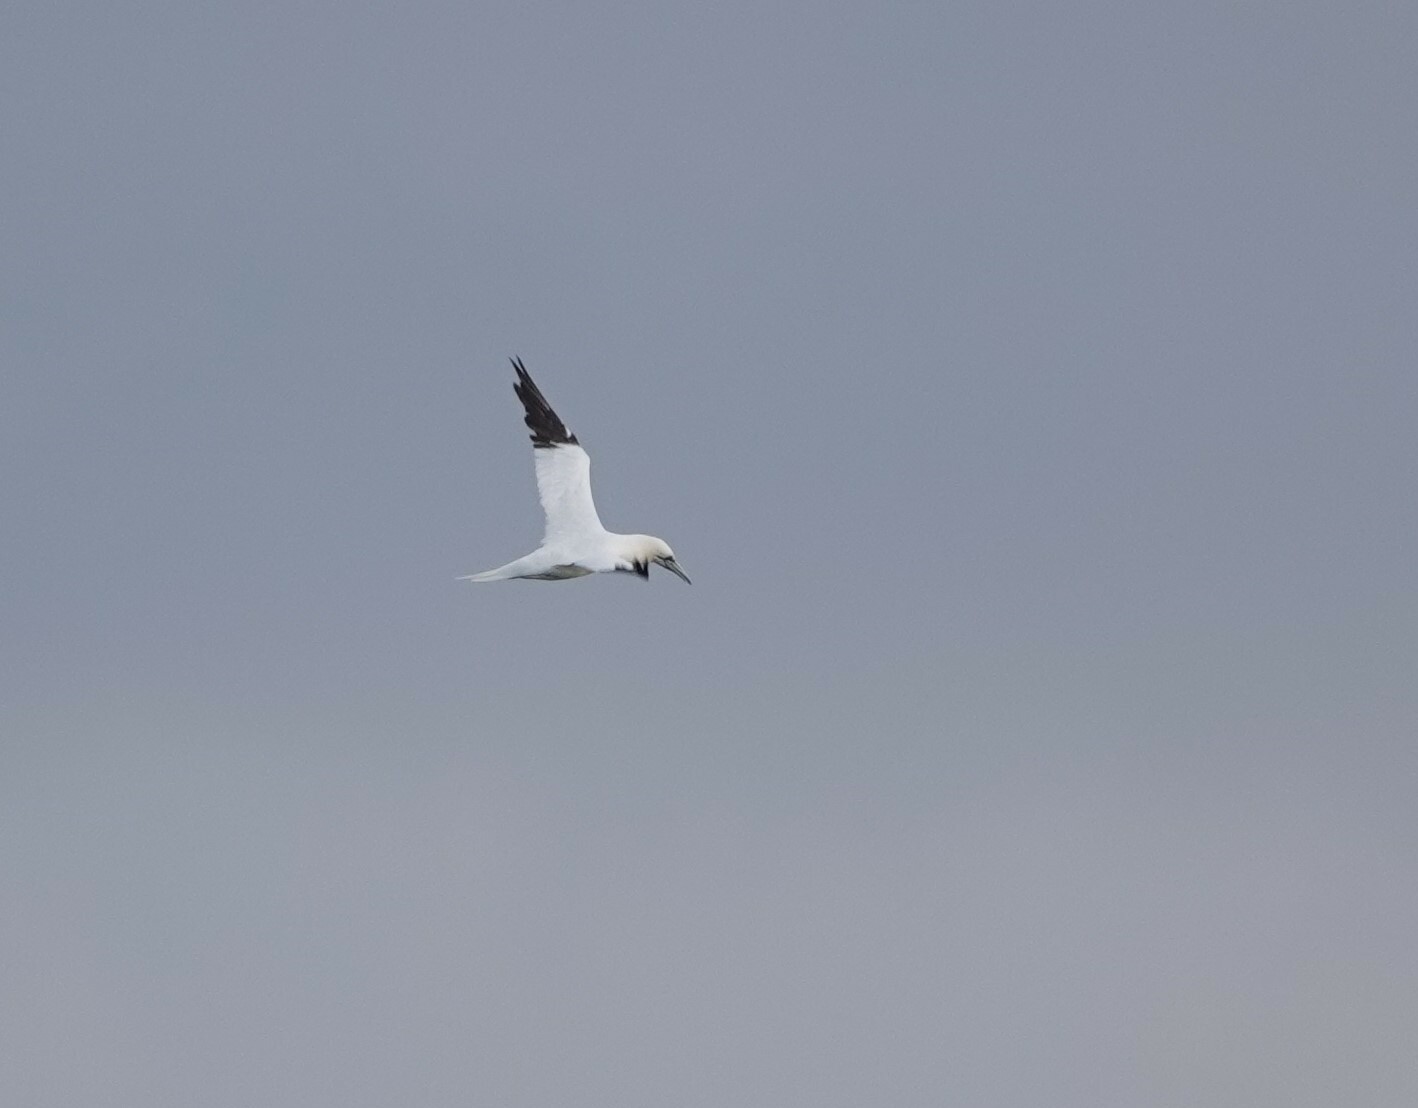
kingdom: Animalia
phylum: Chordata
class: Aves
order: Suliformes
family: Sulidae
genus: Morus
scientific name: Morus bassanus
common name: Northern gannet
